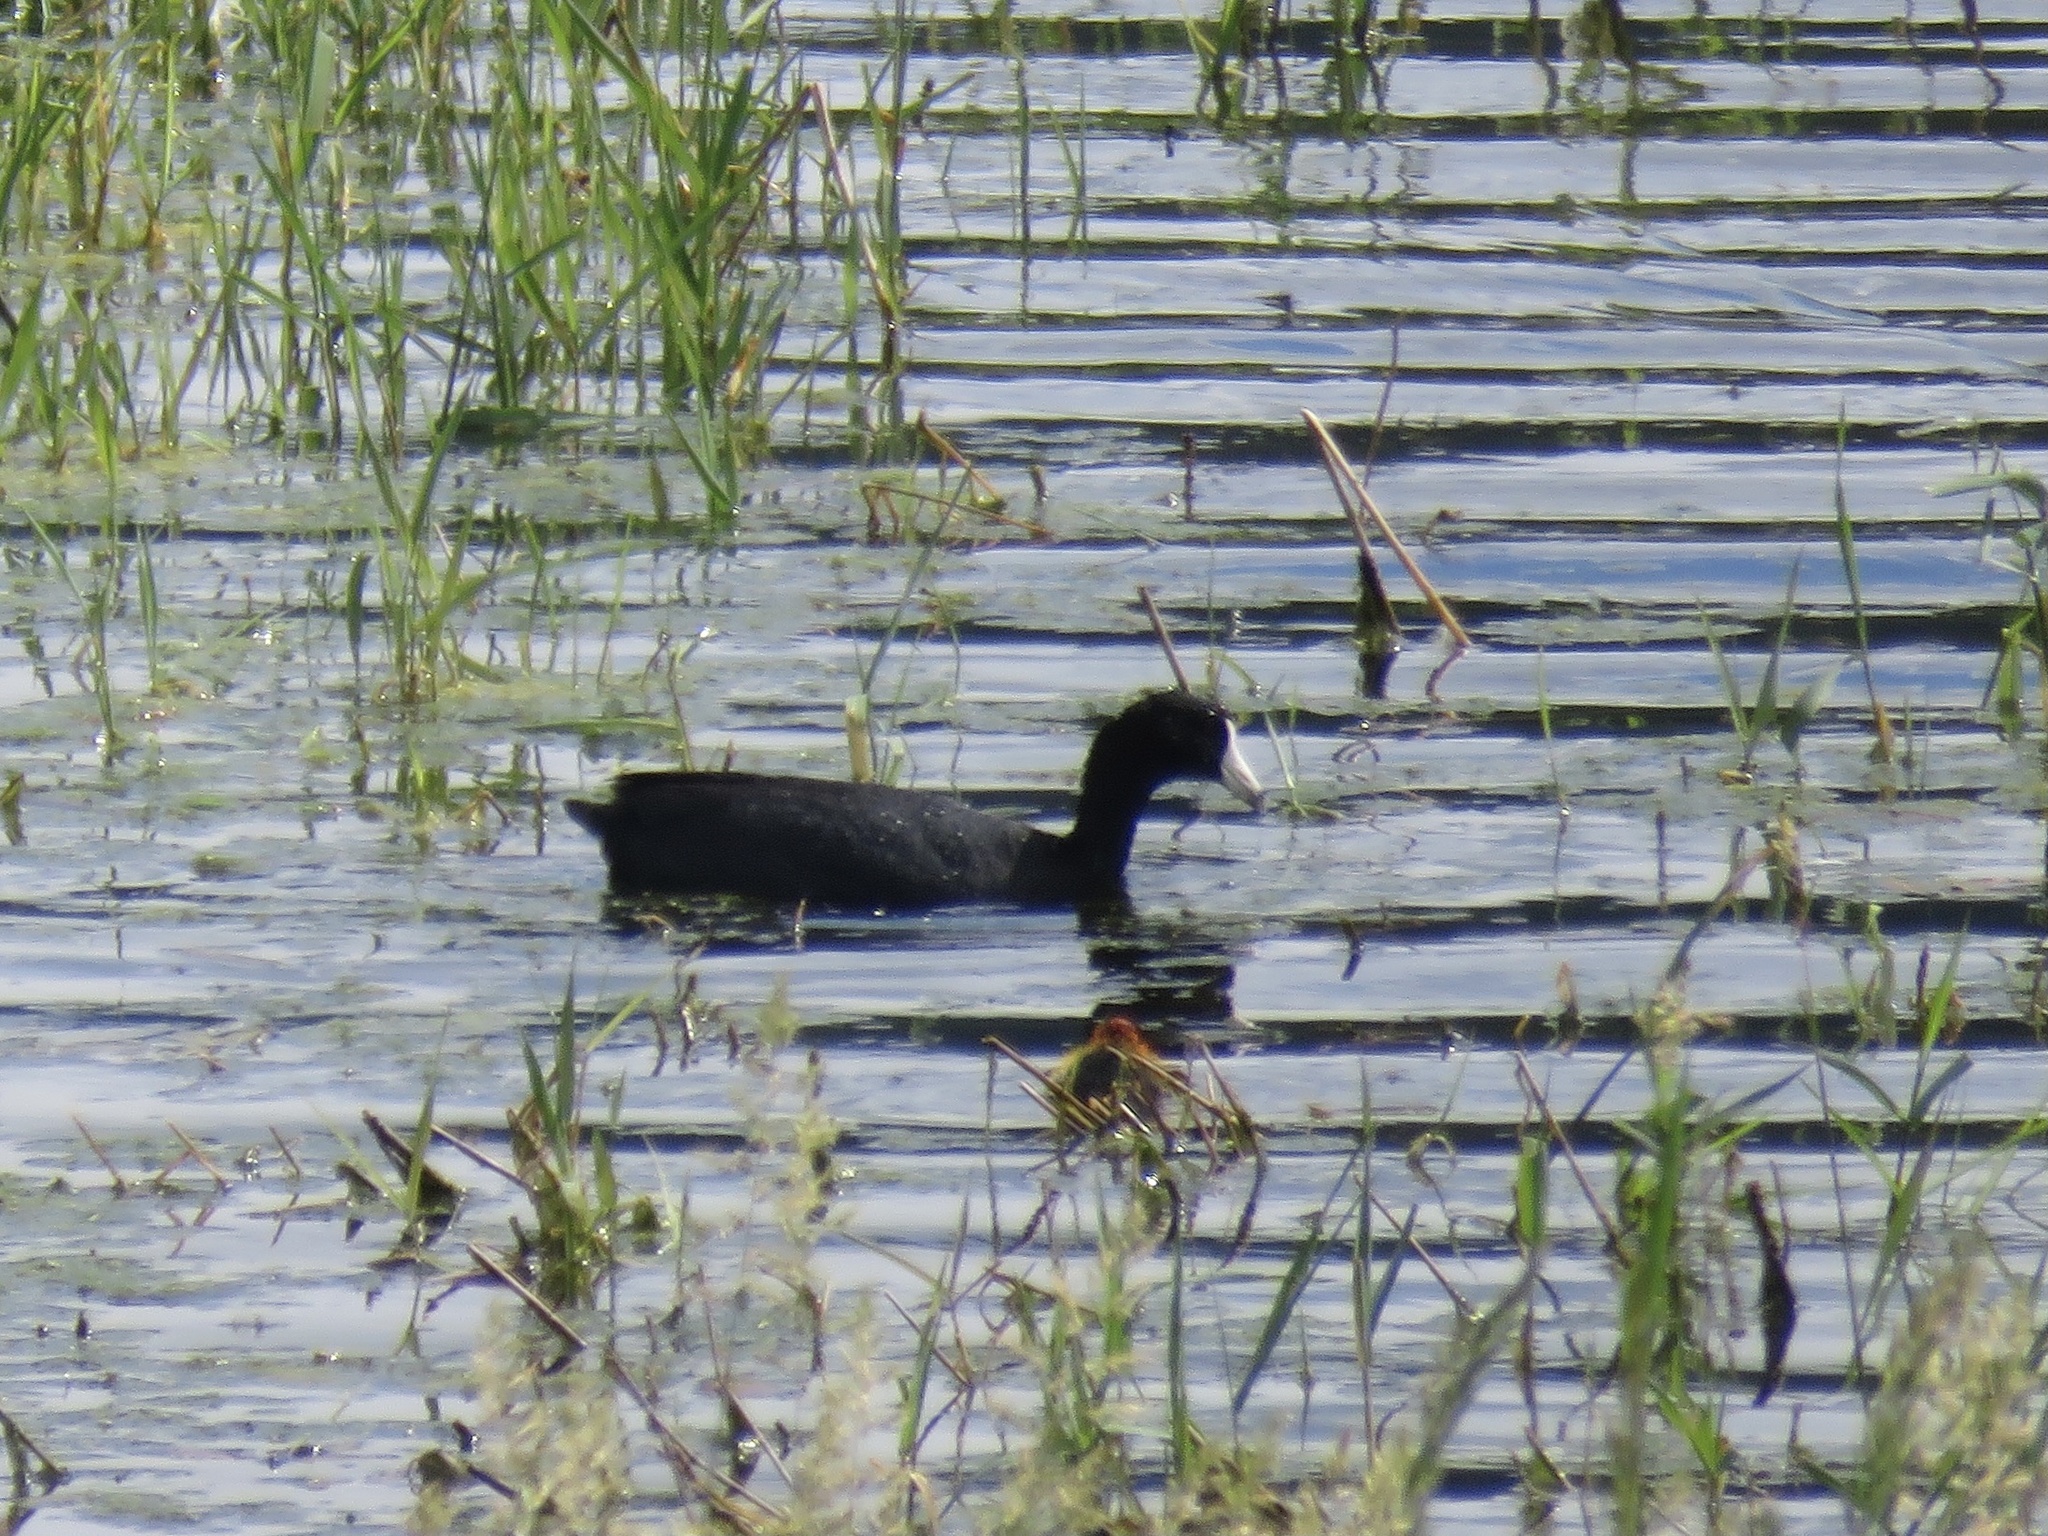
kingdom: Animalia
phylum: Chordata
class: Aves
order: Gruiformes
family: Rallidae
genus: Fulica
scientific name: Fulica americana
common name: American coot
